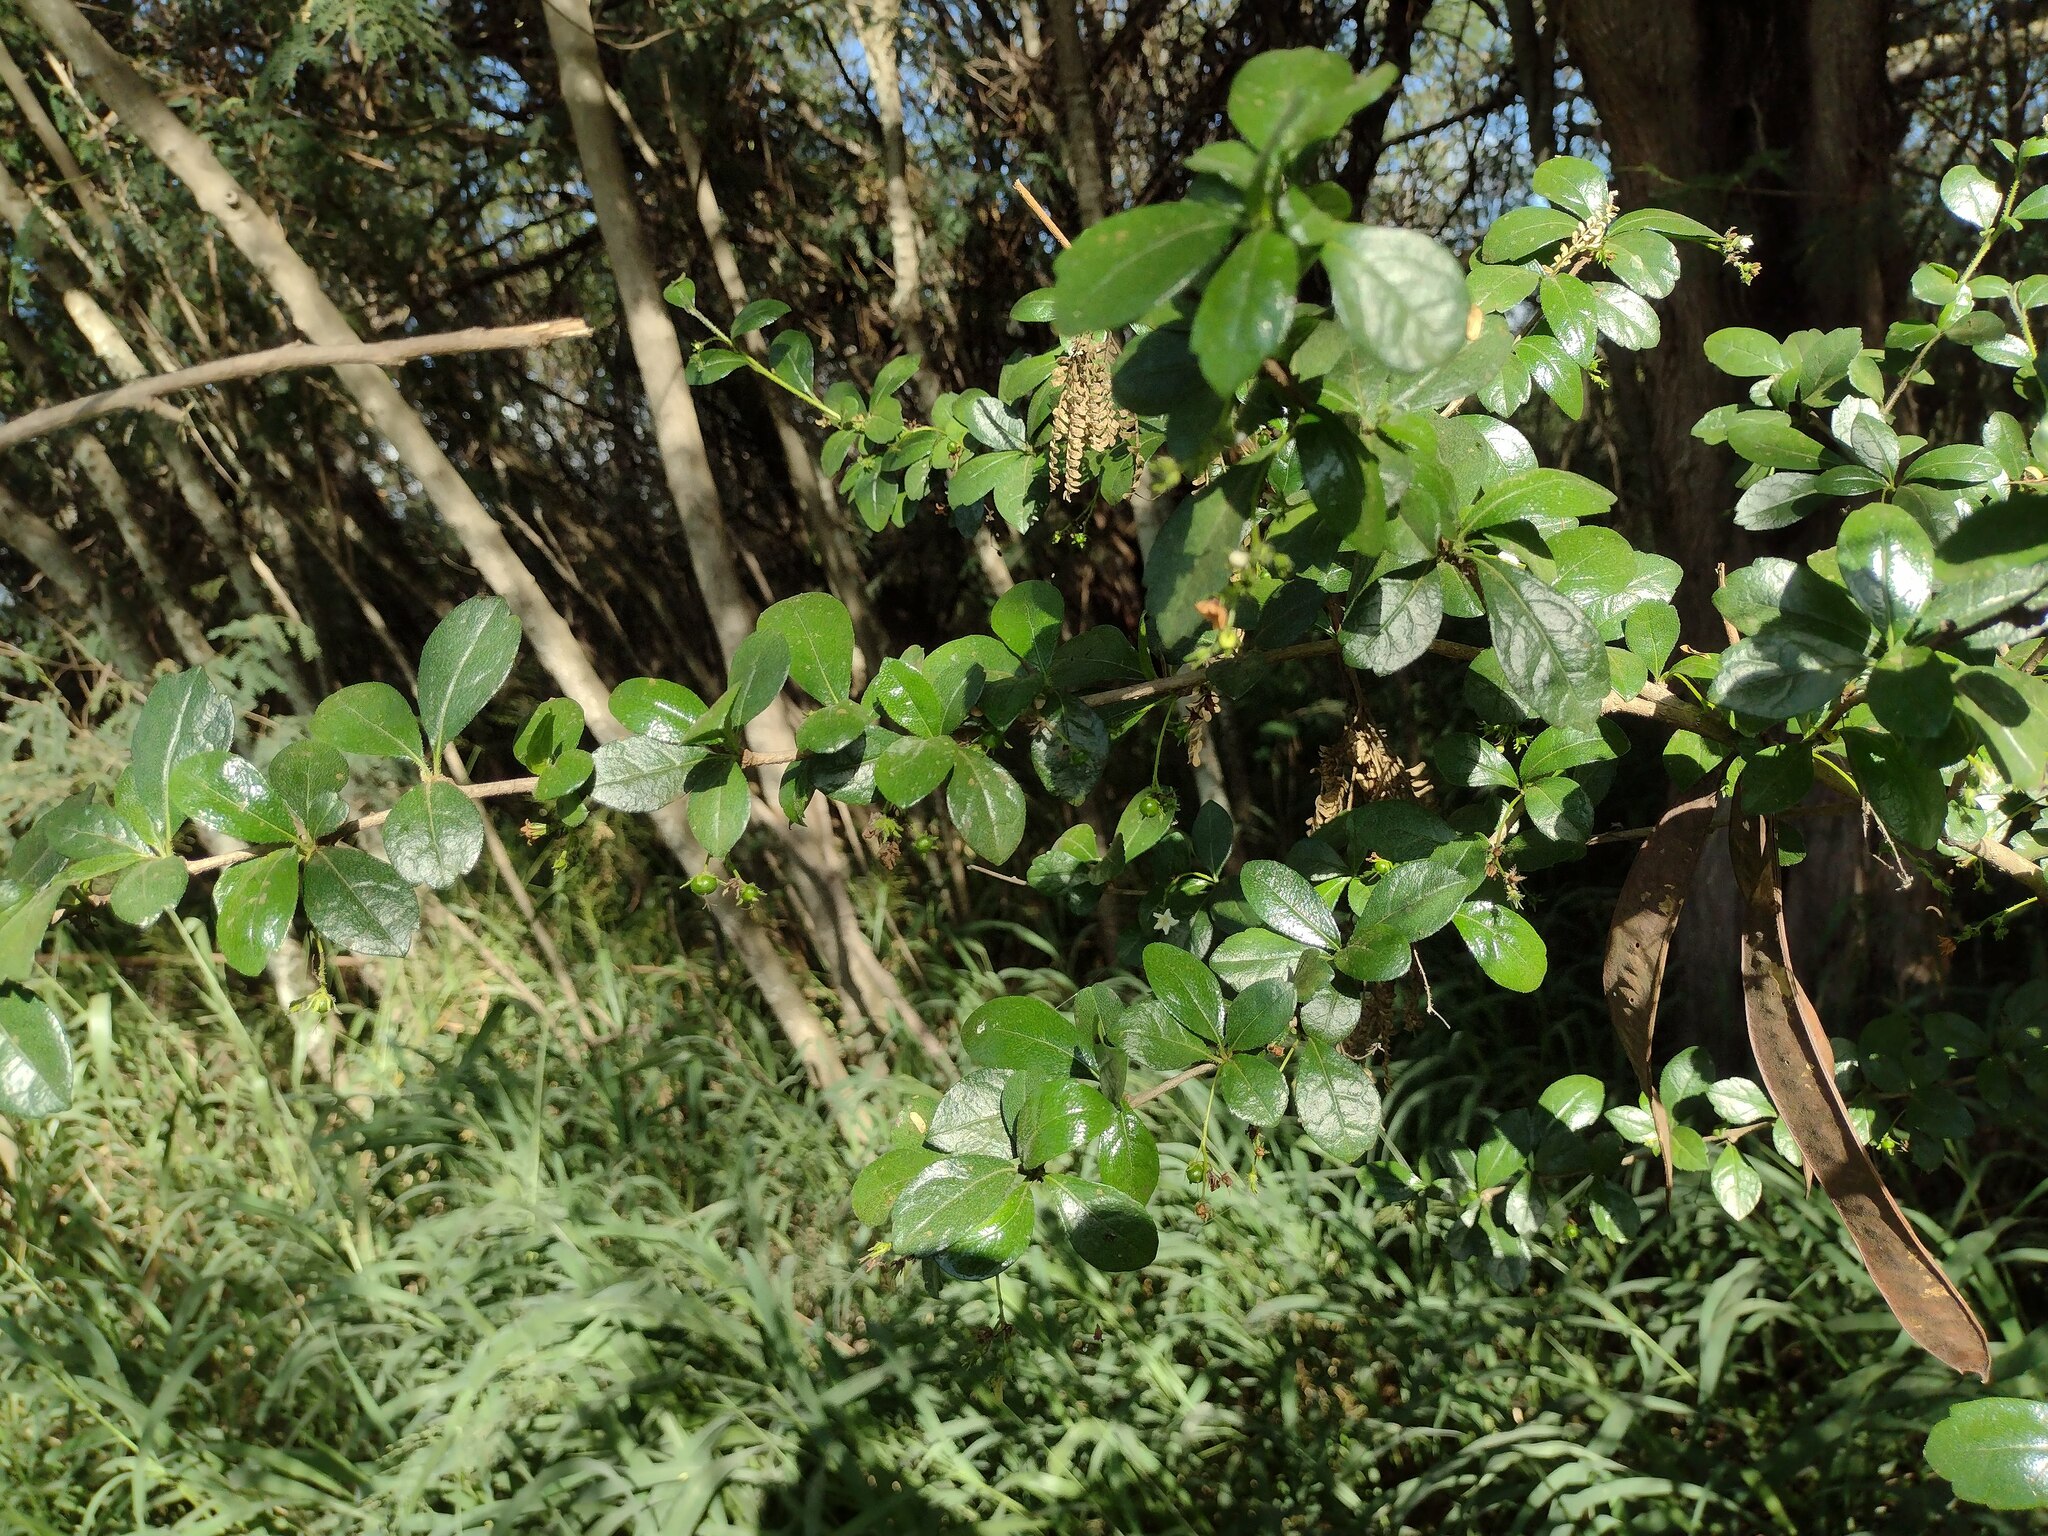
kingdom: Plantae
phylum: Tracheophyta
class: Magnoliopsida
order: Boraginales
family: Ehretiaceae
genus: Ehretia
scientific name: Ehretia microphylla
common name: Fukien-tea
